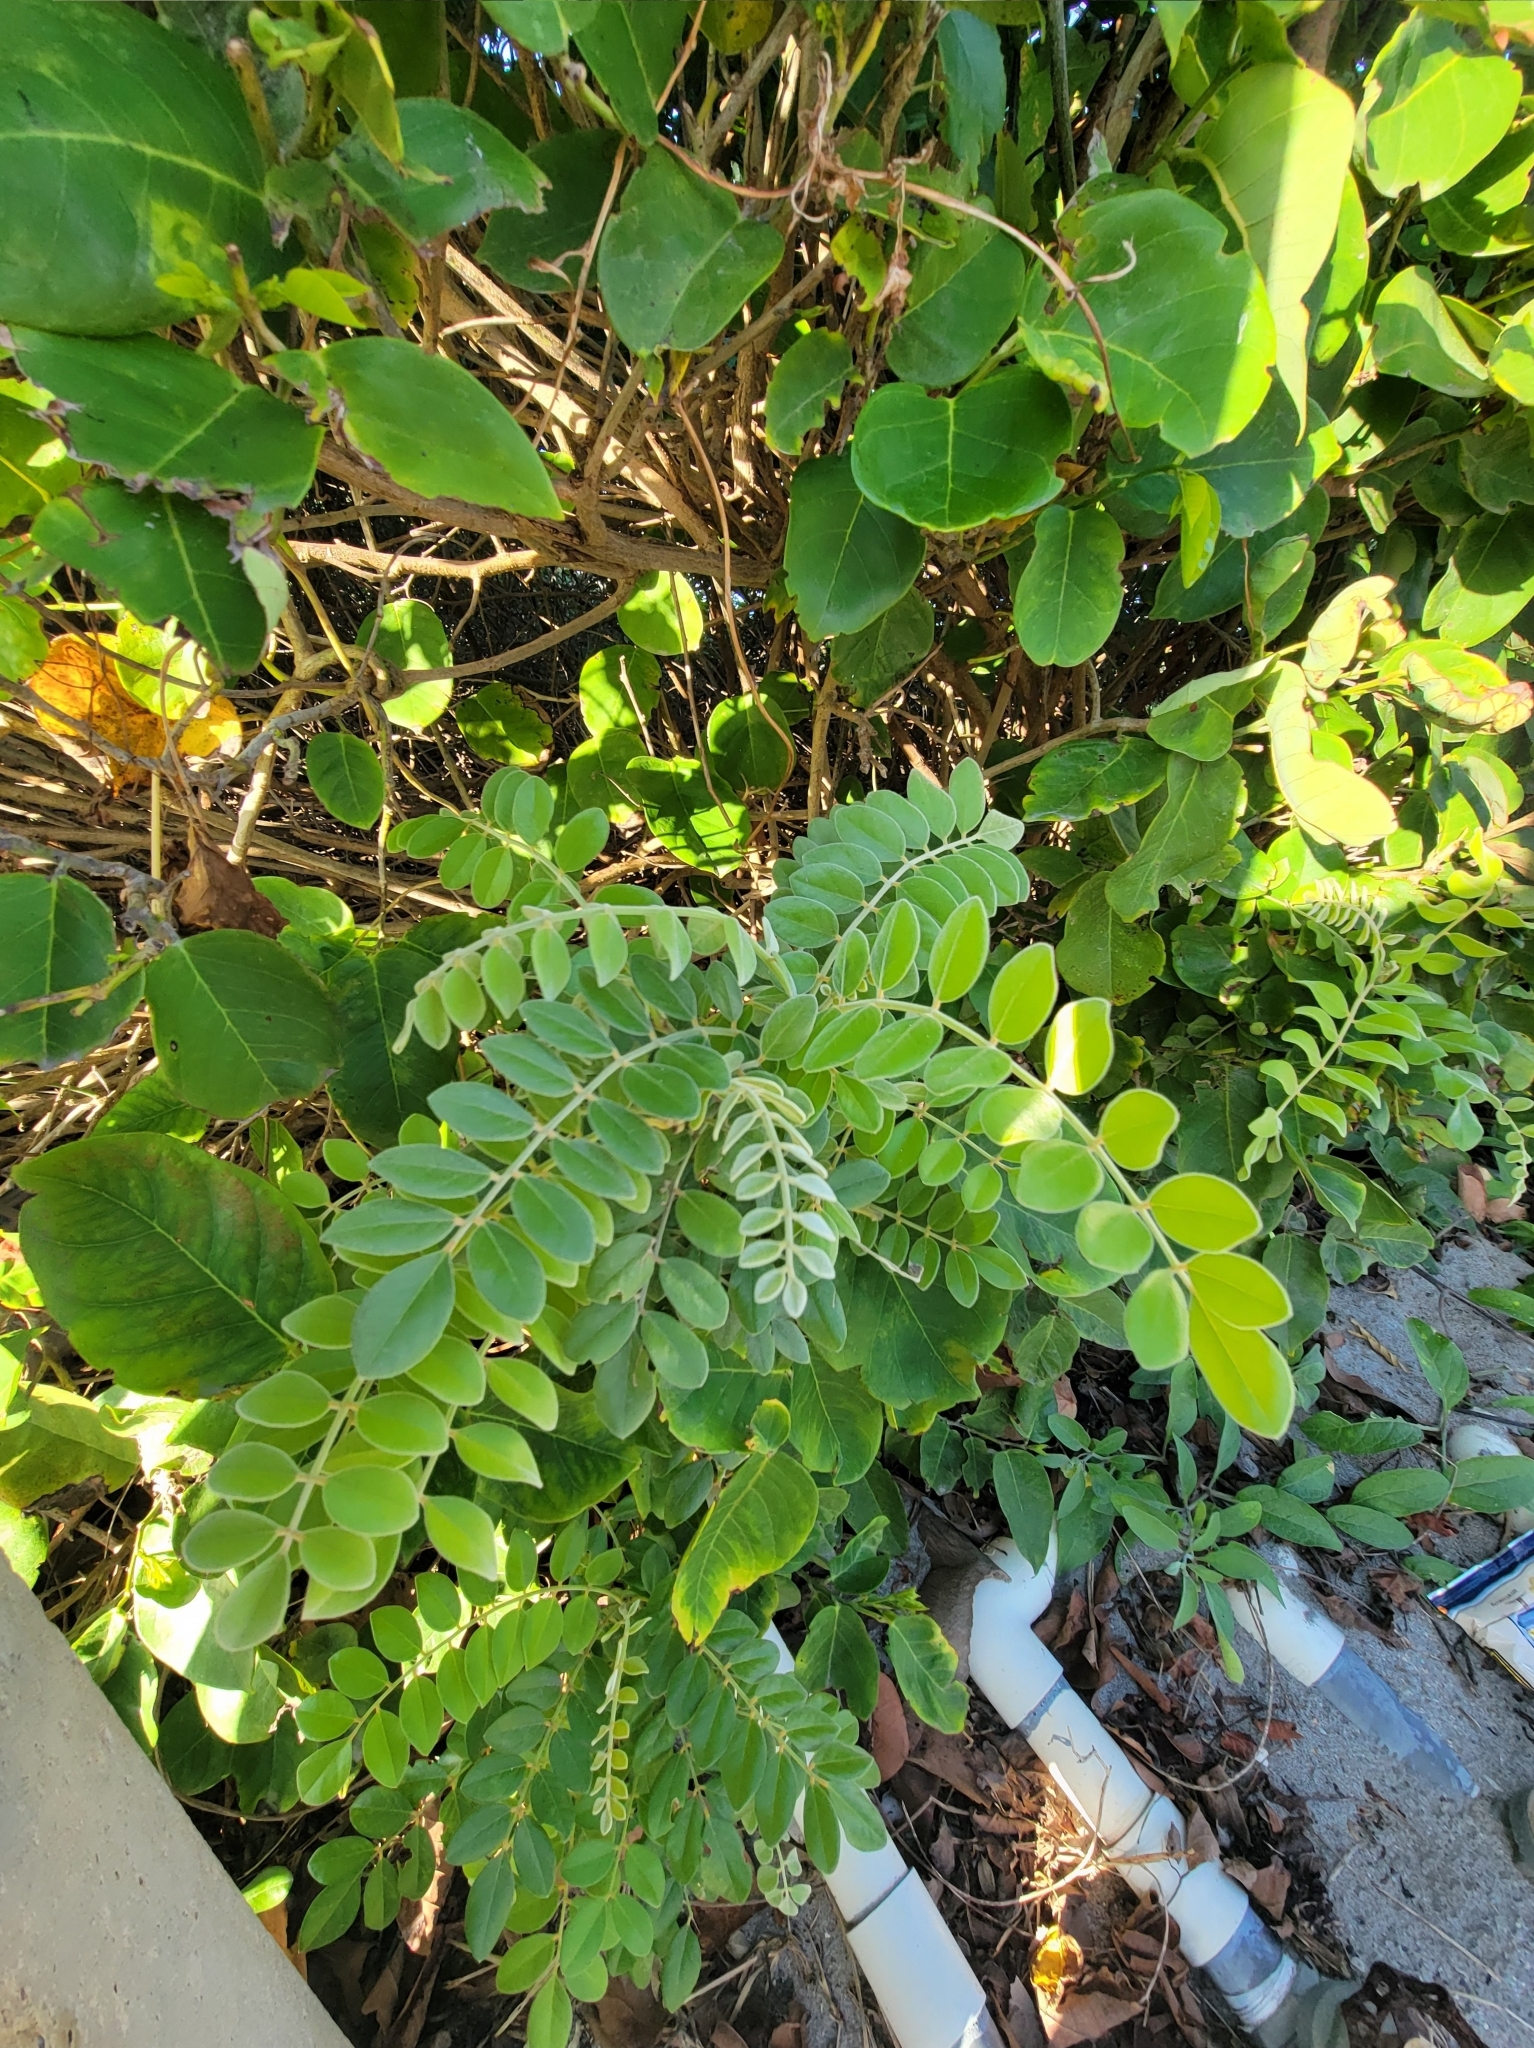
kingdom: Plantae
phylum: Tracheophyta
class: Magnoliopsida
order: Fabales
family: Fabaceae
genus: Sophora
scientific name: Sophora tomentosa
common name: Yellow necklacepod
